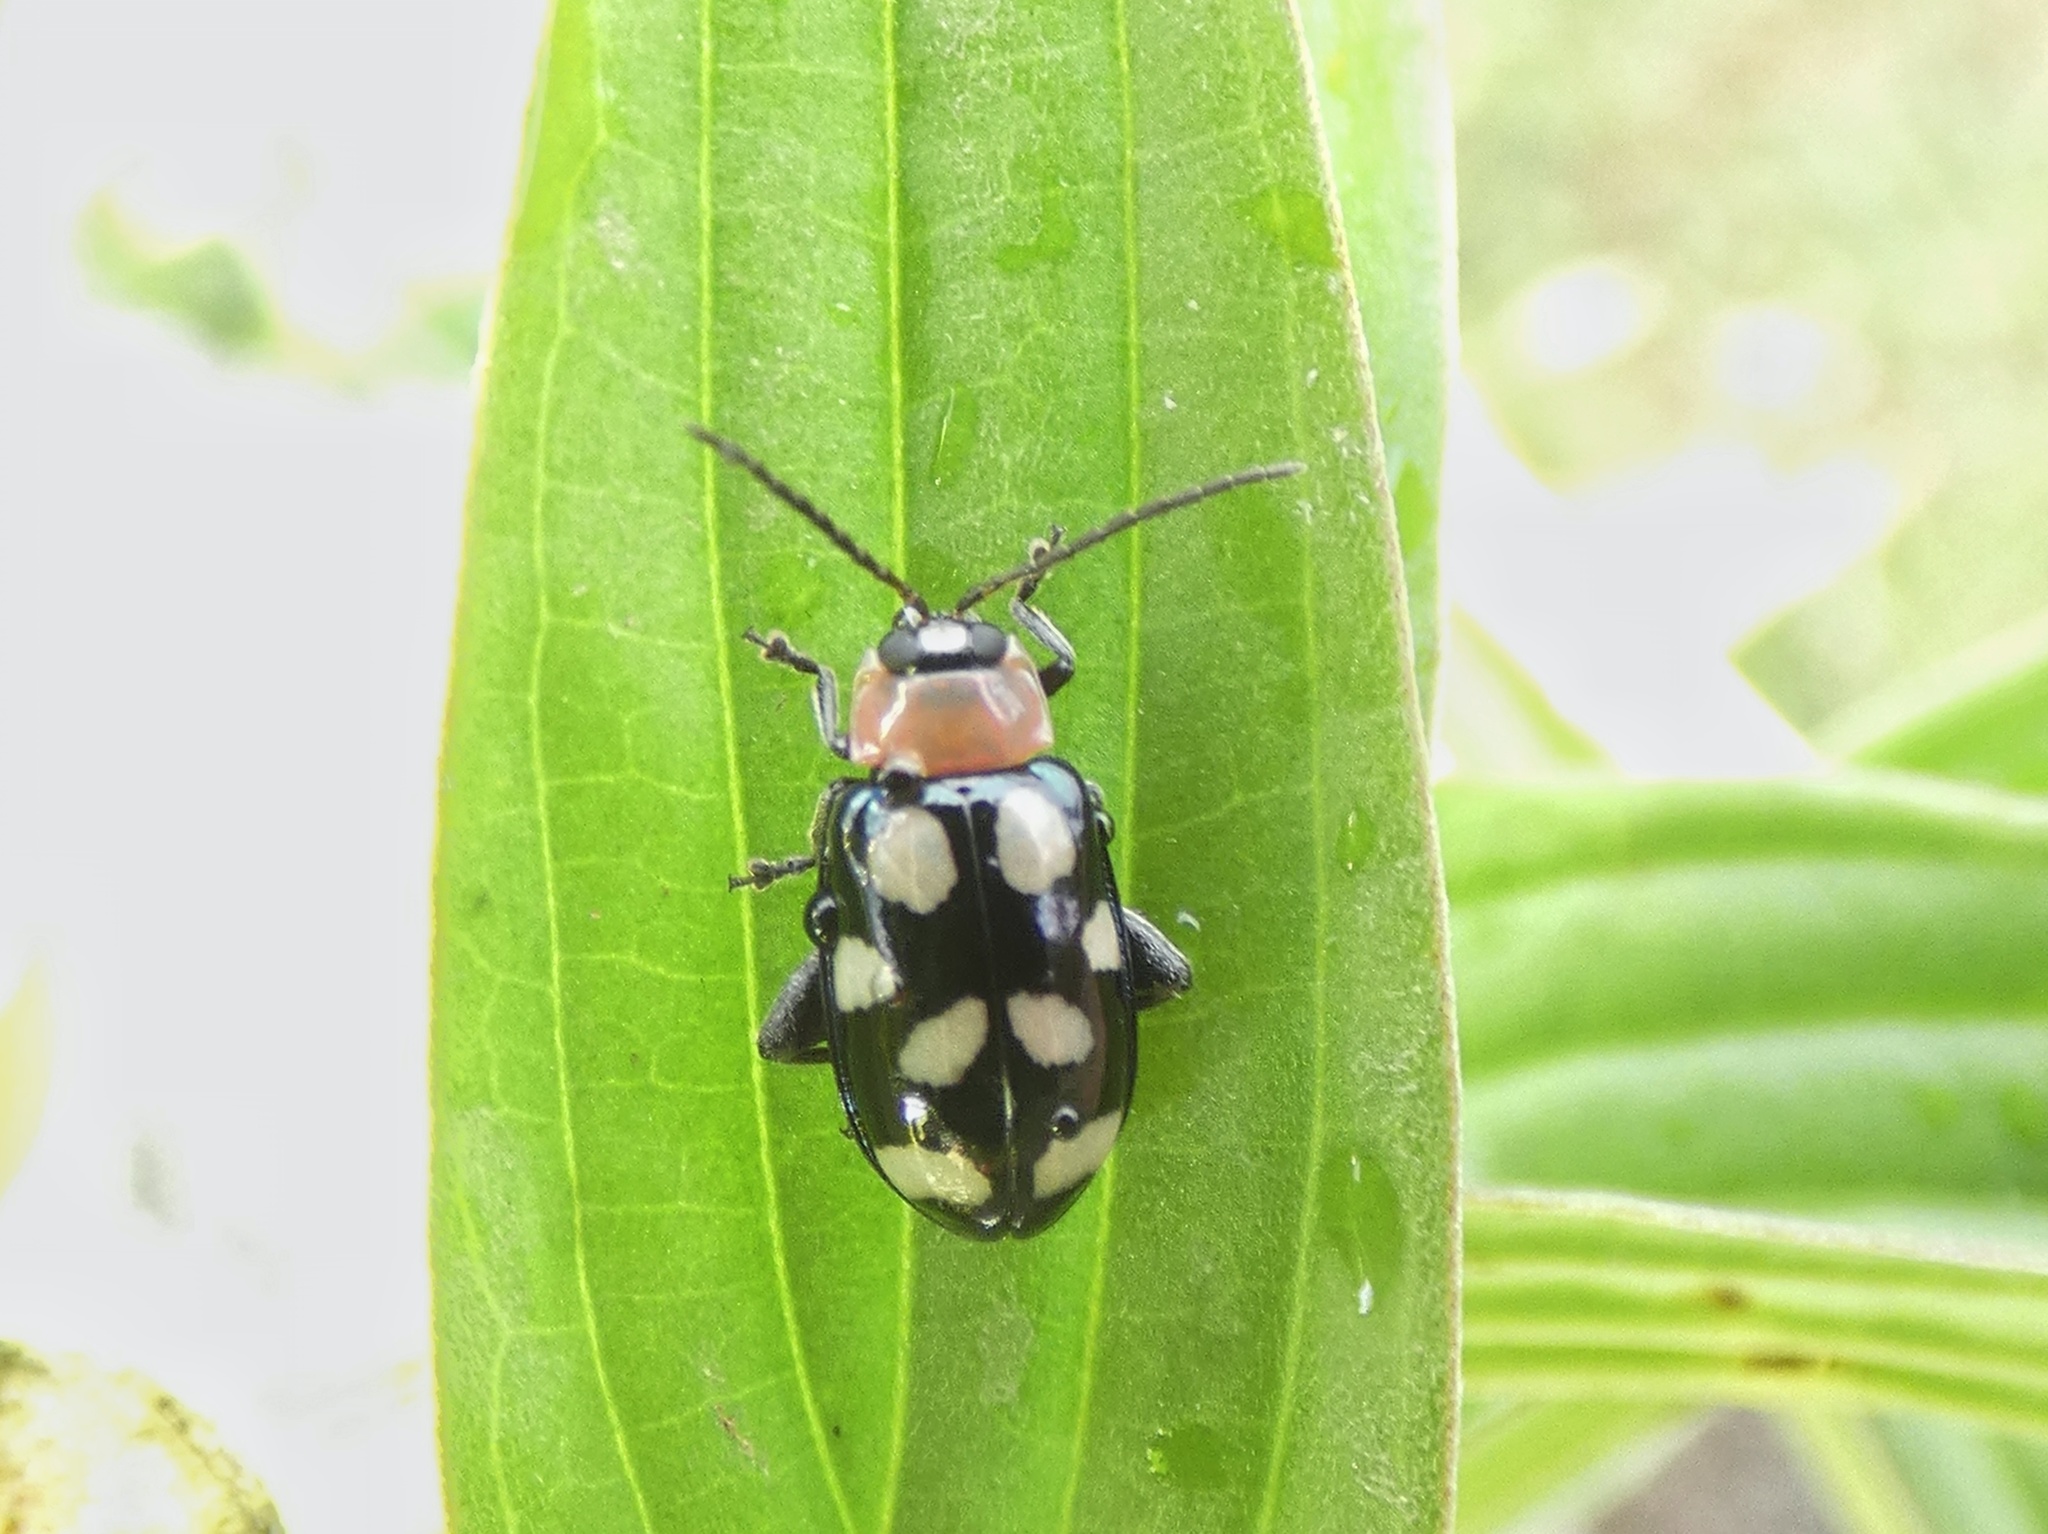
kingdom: Animalia
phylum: Arthropoda
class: Insecta
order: Coleoptera
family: Chrysomelidae
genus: Omophoita
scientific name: Omophoita aequinoctialis
